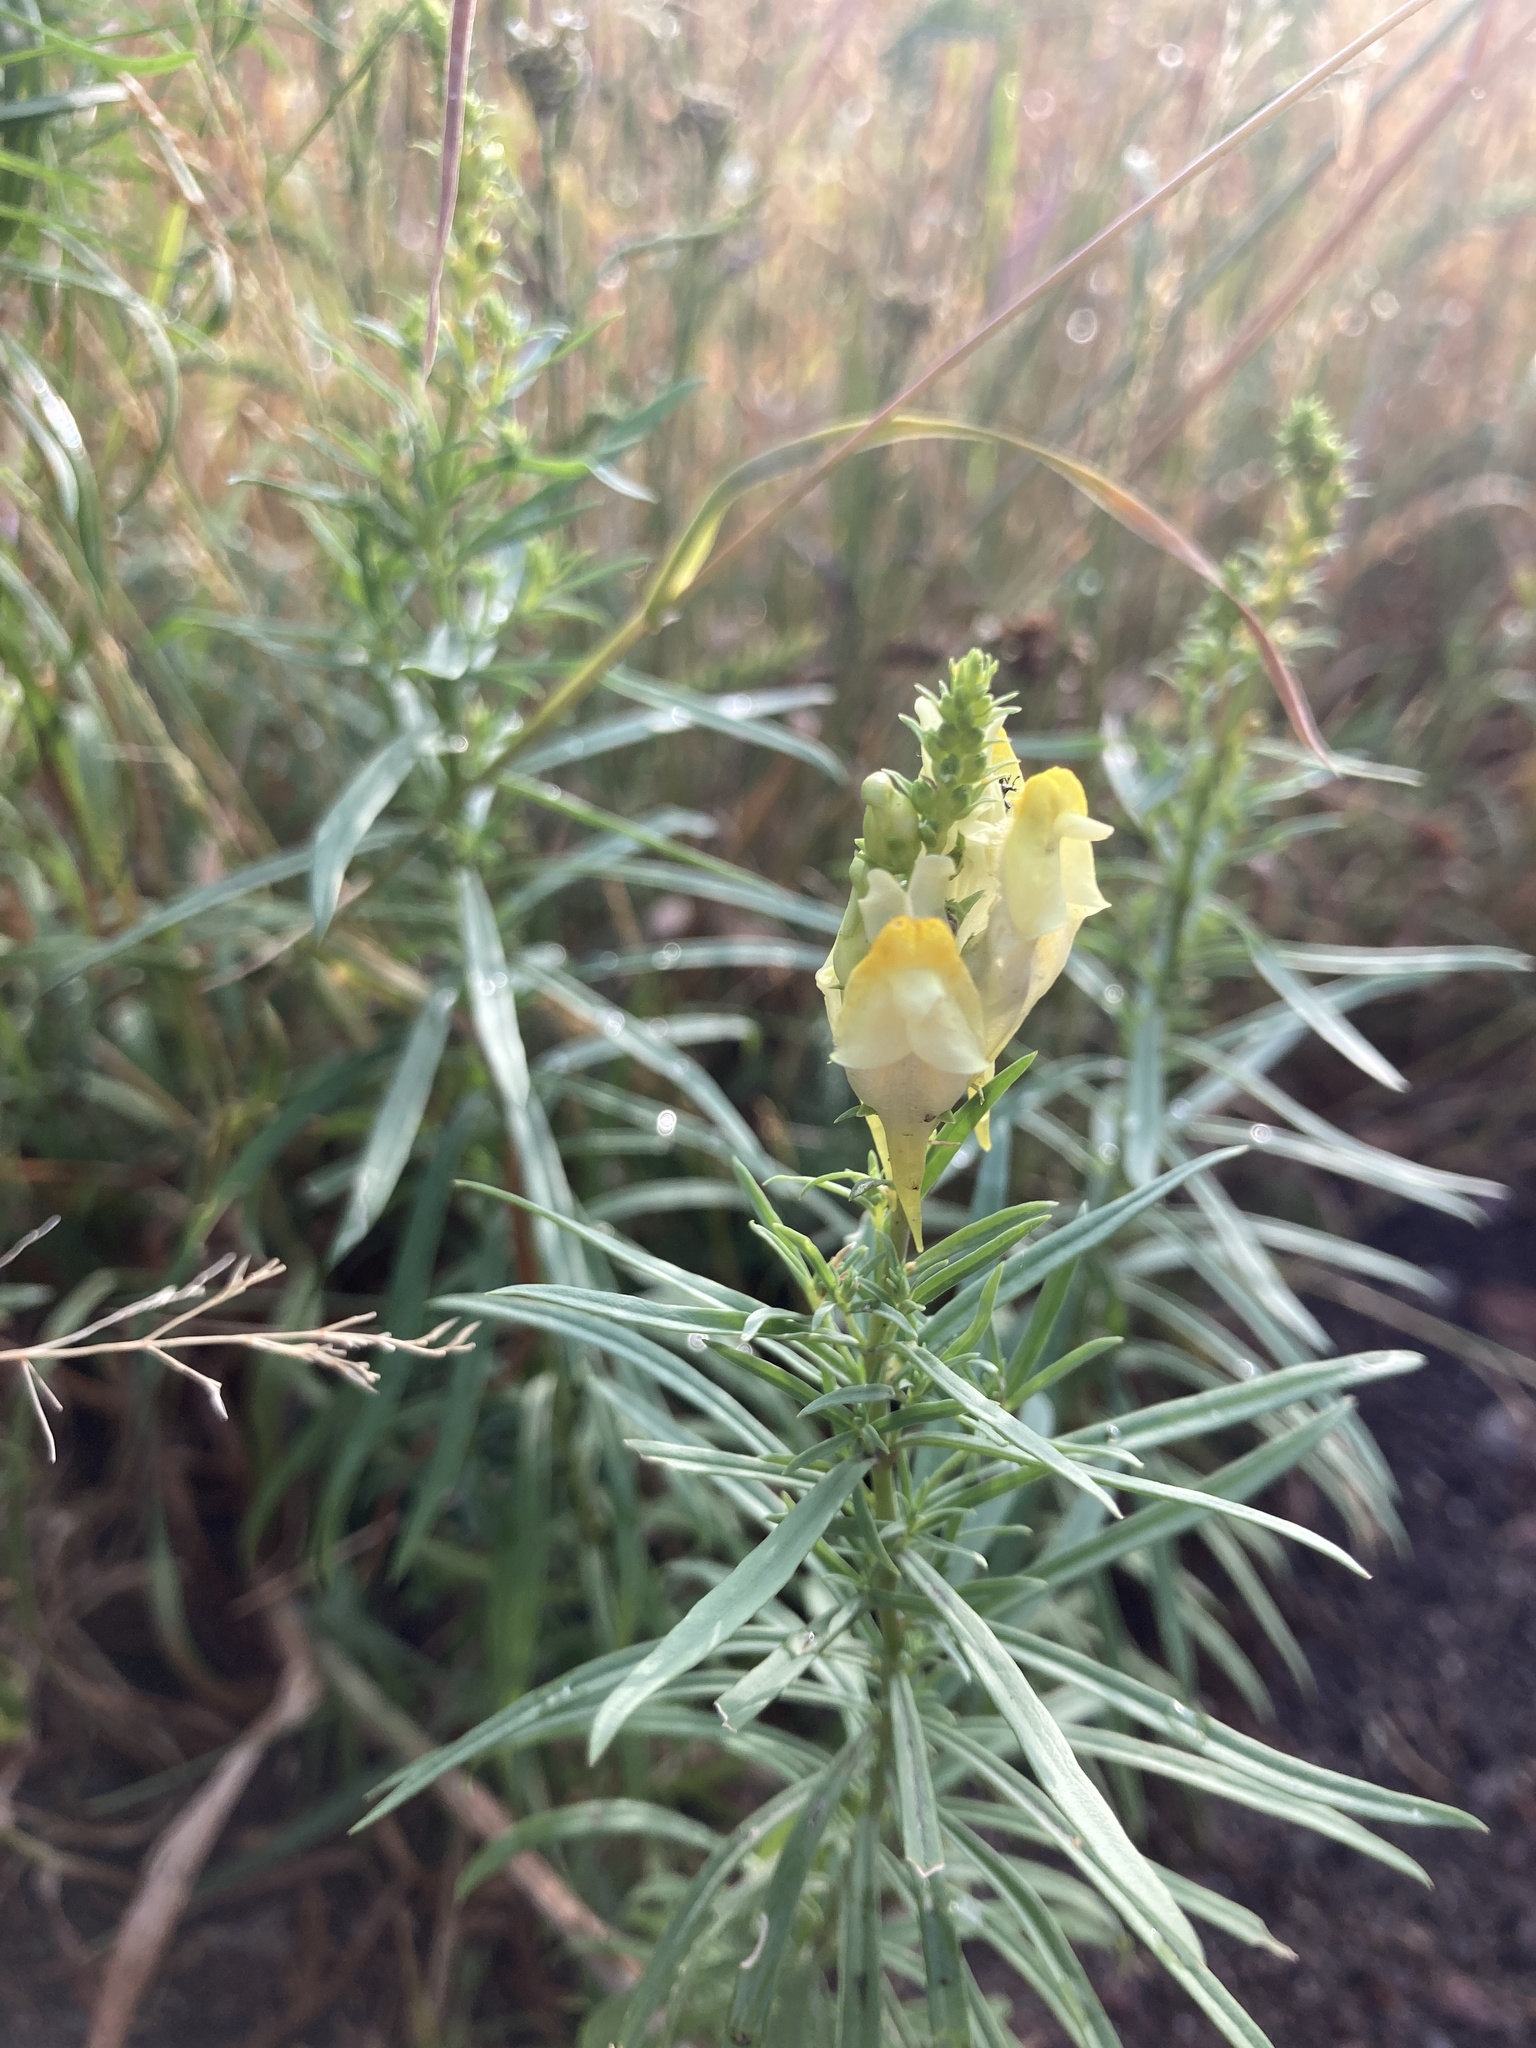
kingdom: Plantae
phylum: Tracheophyta
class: Magnoliopsida
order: Lamiales
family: Plantaginaceae
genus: Linaria
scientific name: Linaria vulgaris
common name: Butter and eggs
